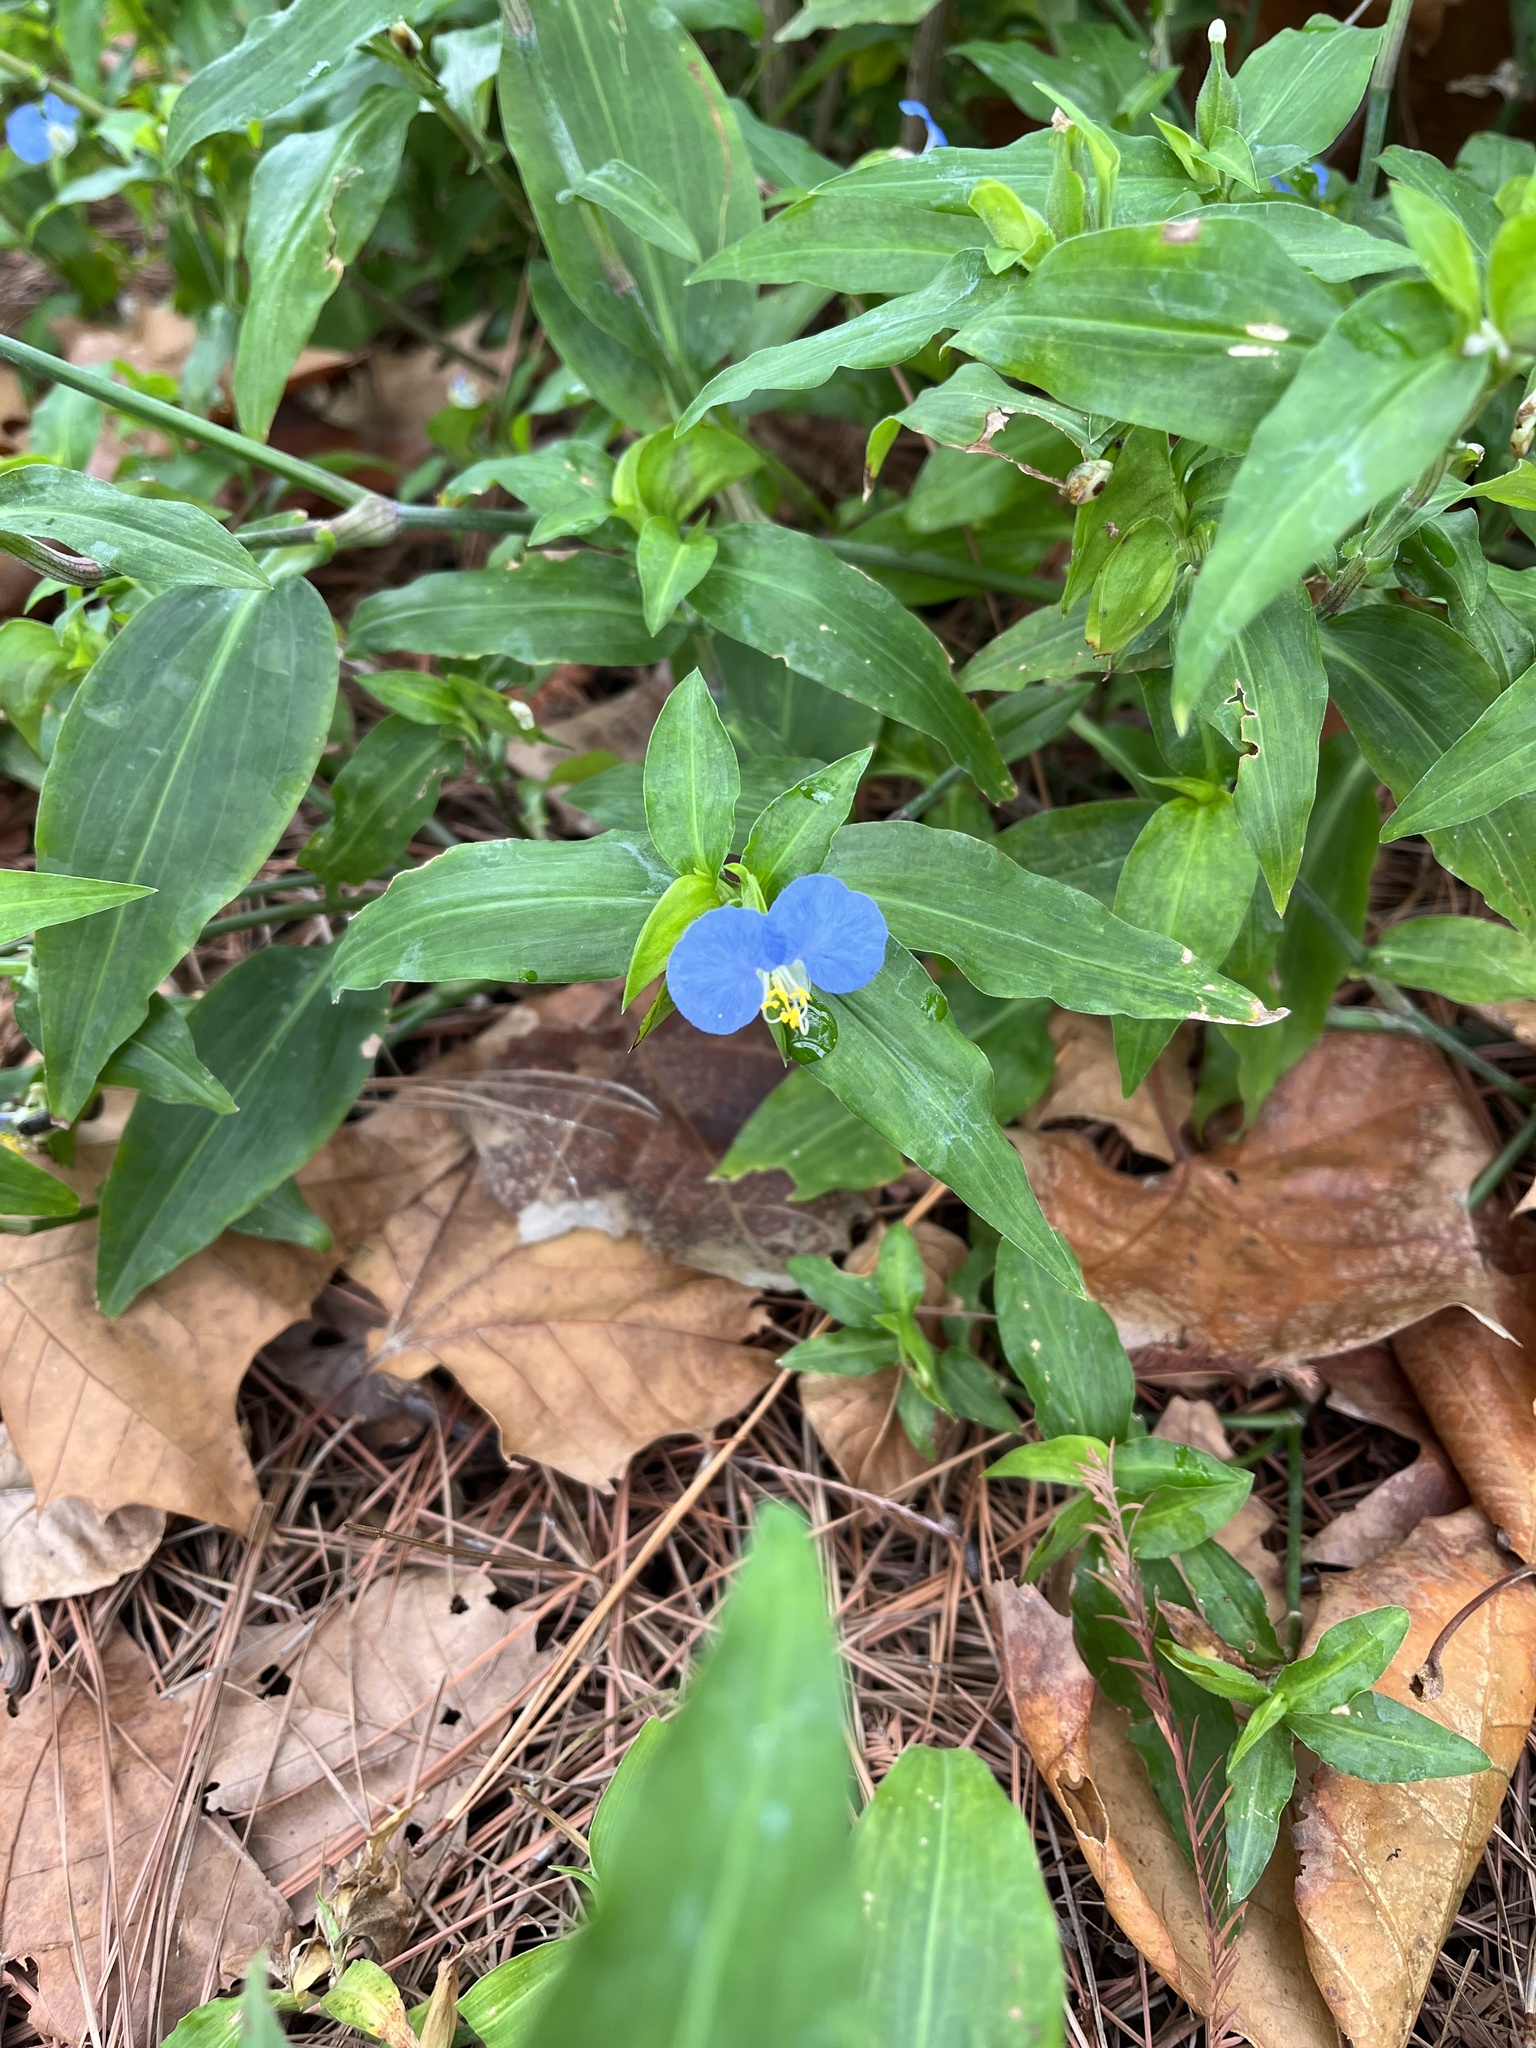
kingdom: Plantae
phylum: Tracheophyta
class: Liliopsida
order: Commelinales
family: Commelinaceae
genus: Commelina
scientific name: Commelina erecta
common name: Blousel blommetjie
